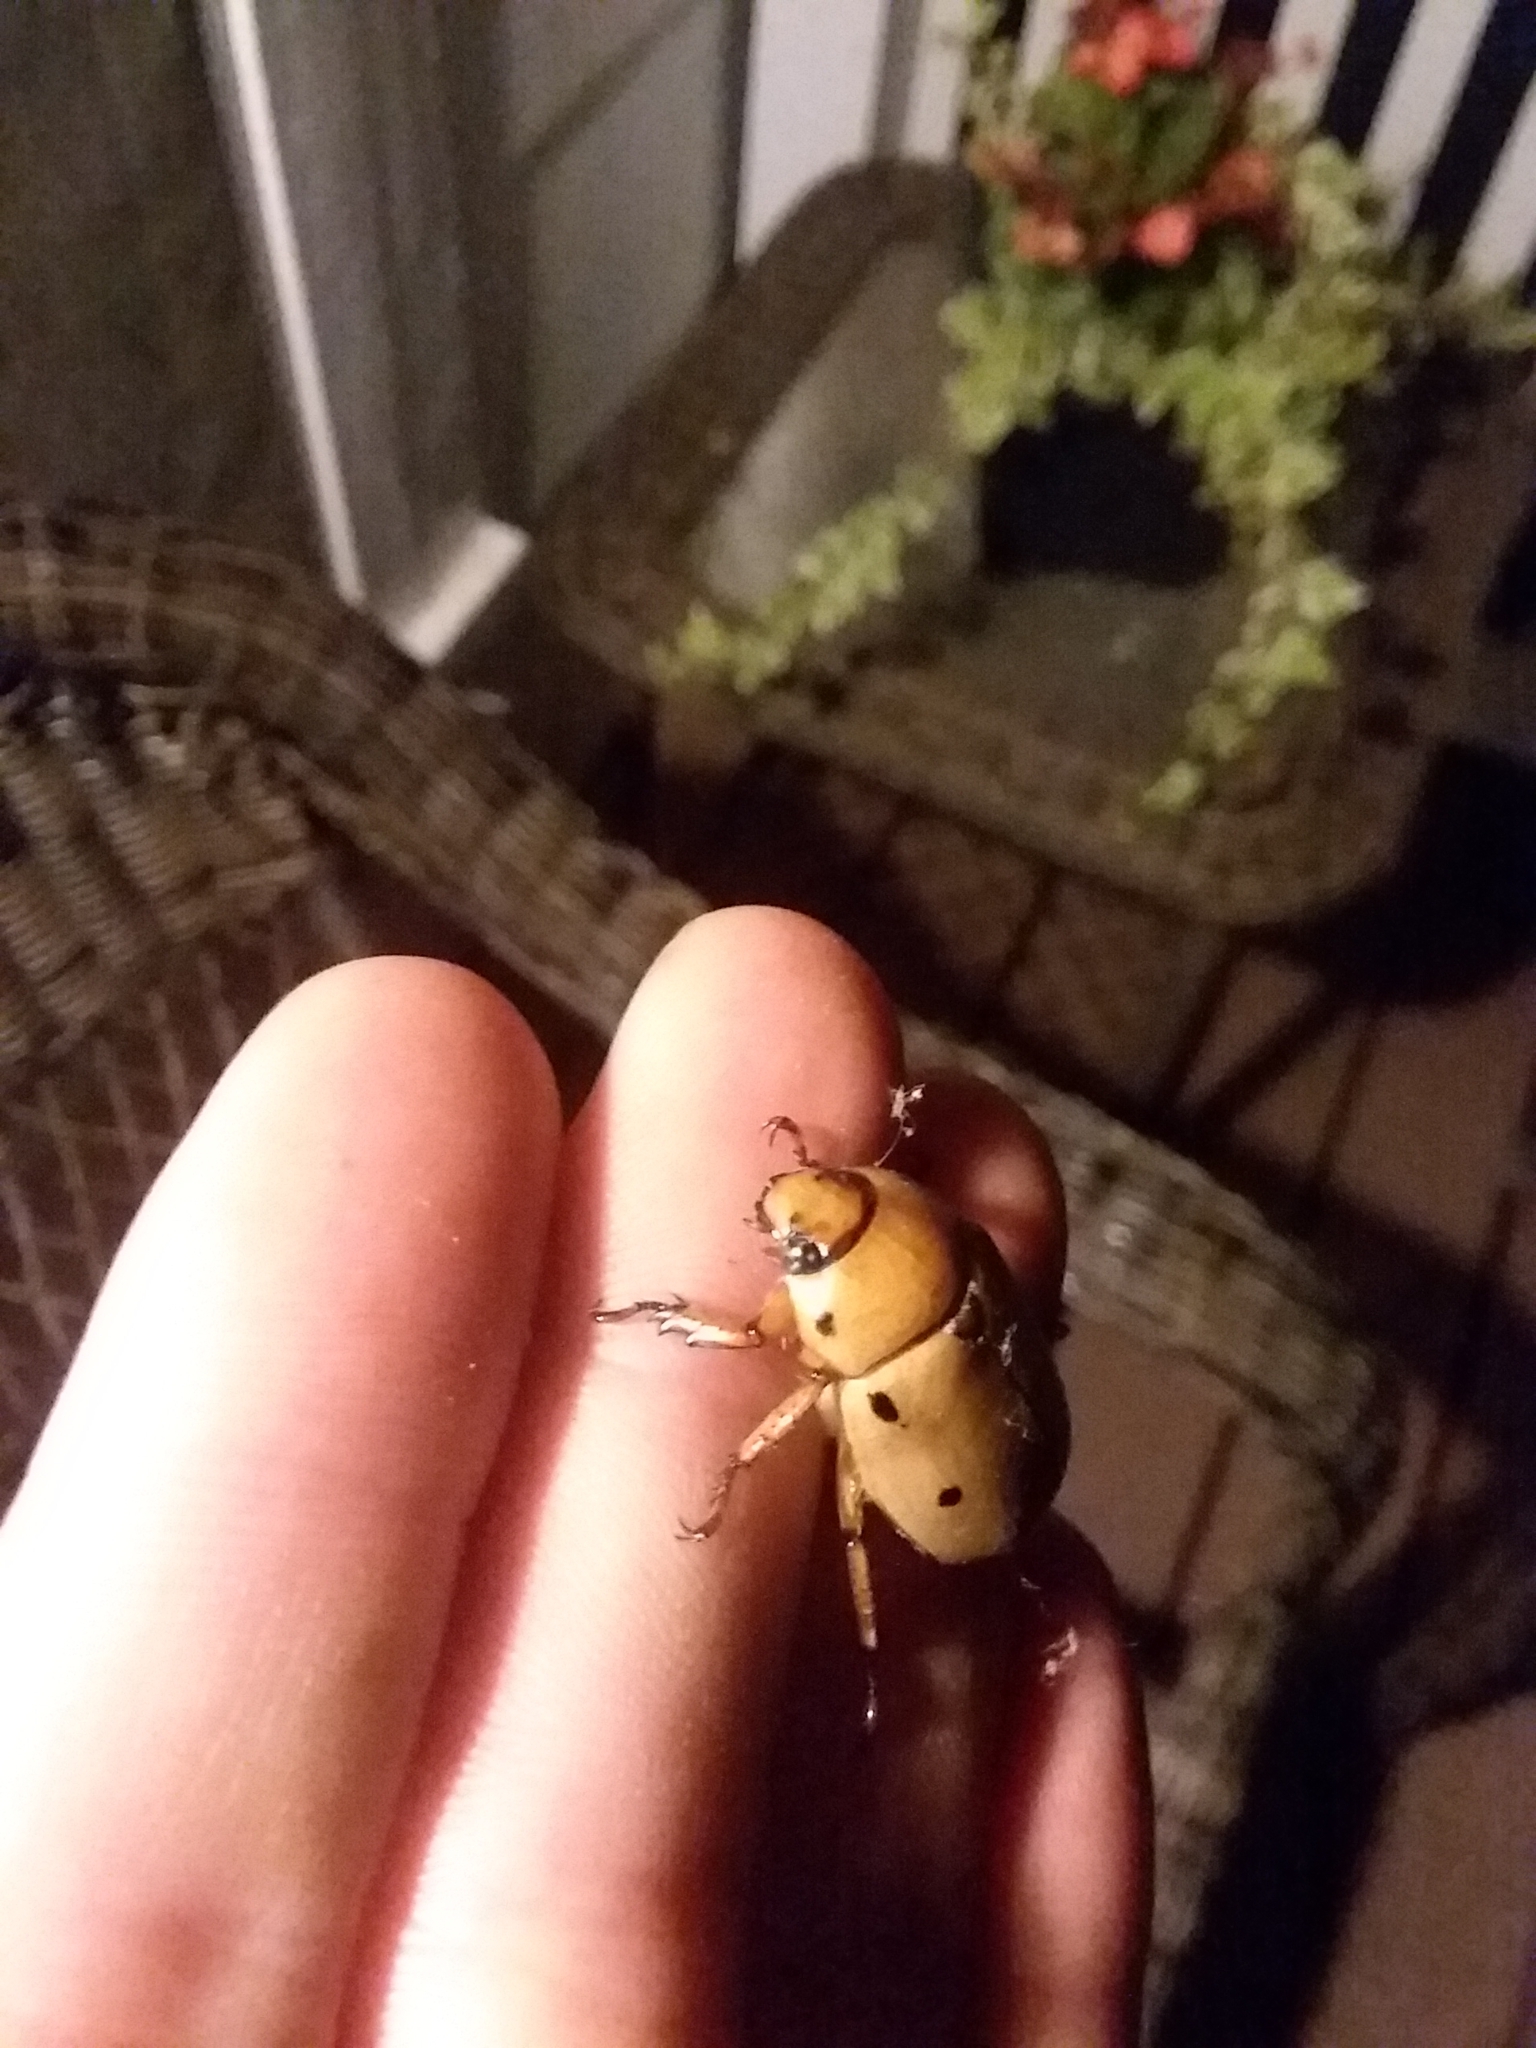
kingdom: Animalia
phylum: Arthropoda
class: Insecta
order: Coleoptera
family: Scarabaeidae
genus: Pelidnota
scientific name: Pelidnota punctata
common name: Grapevine beetle
